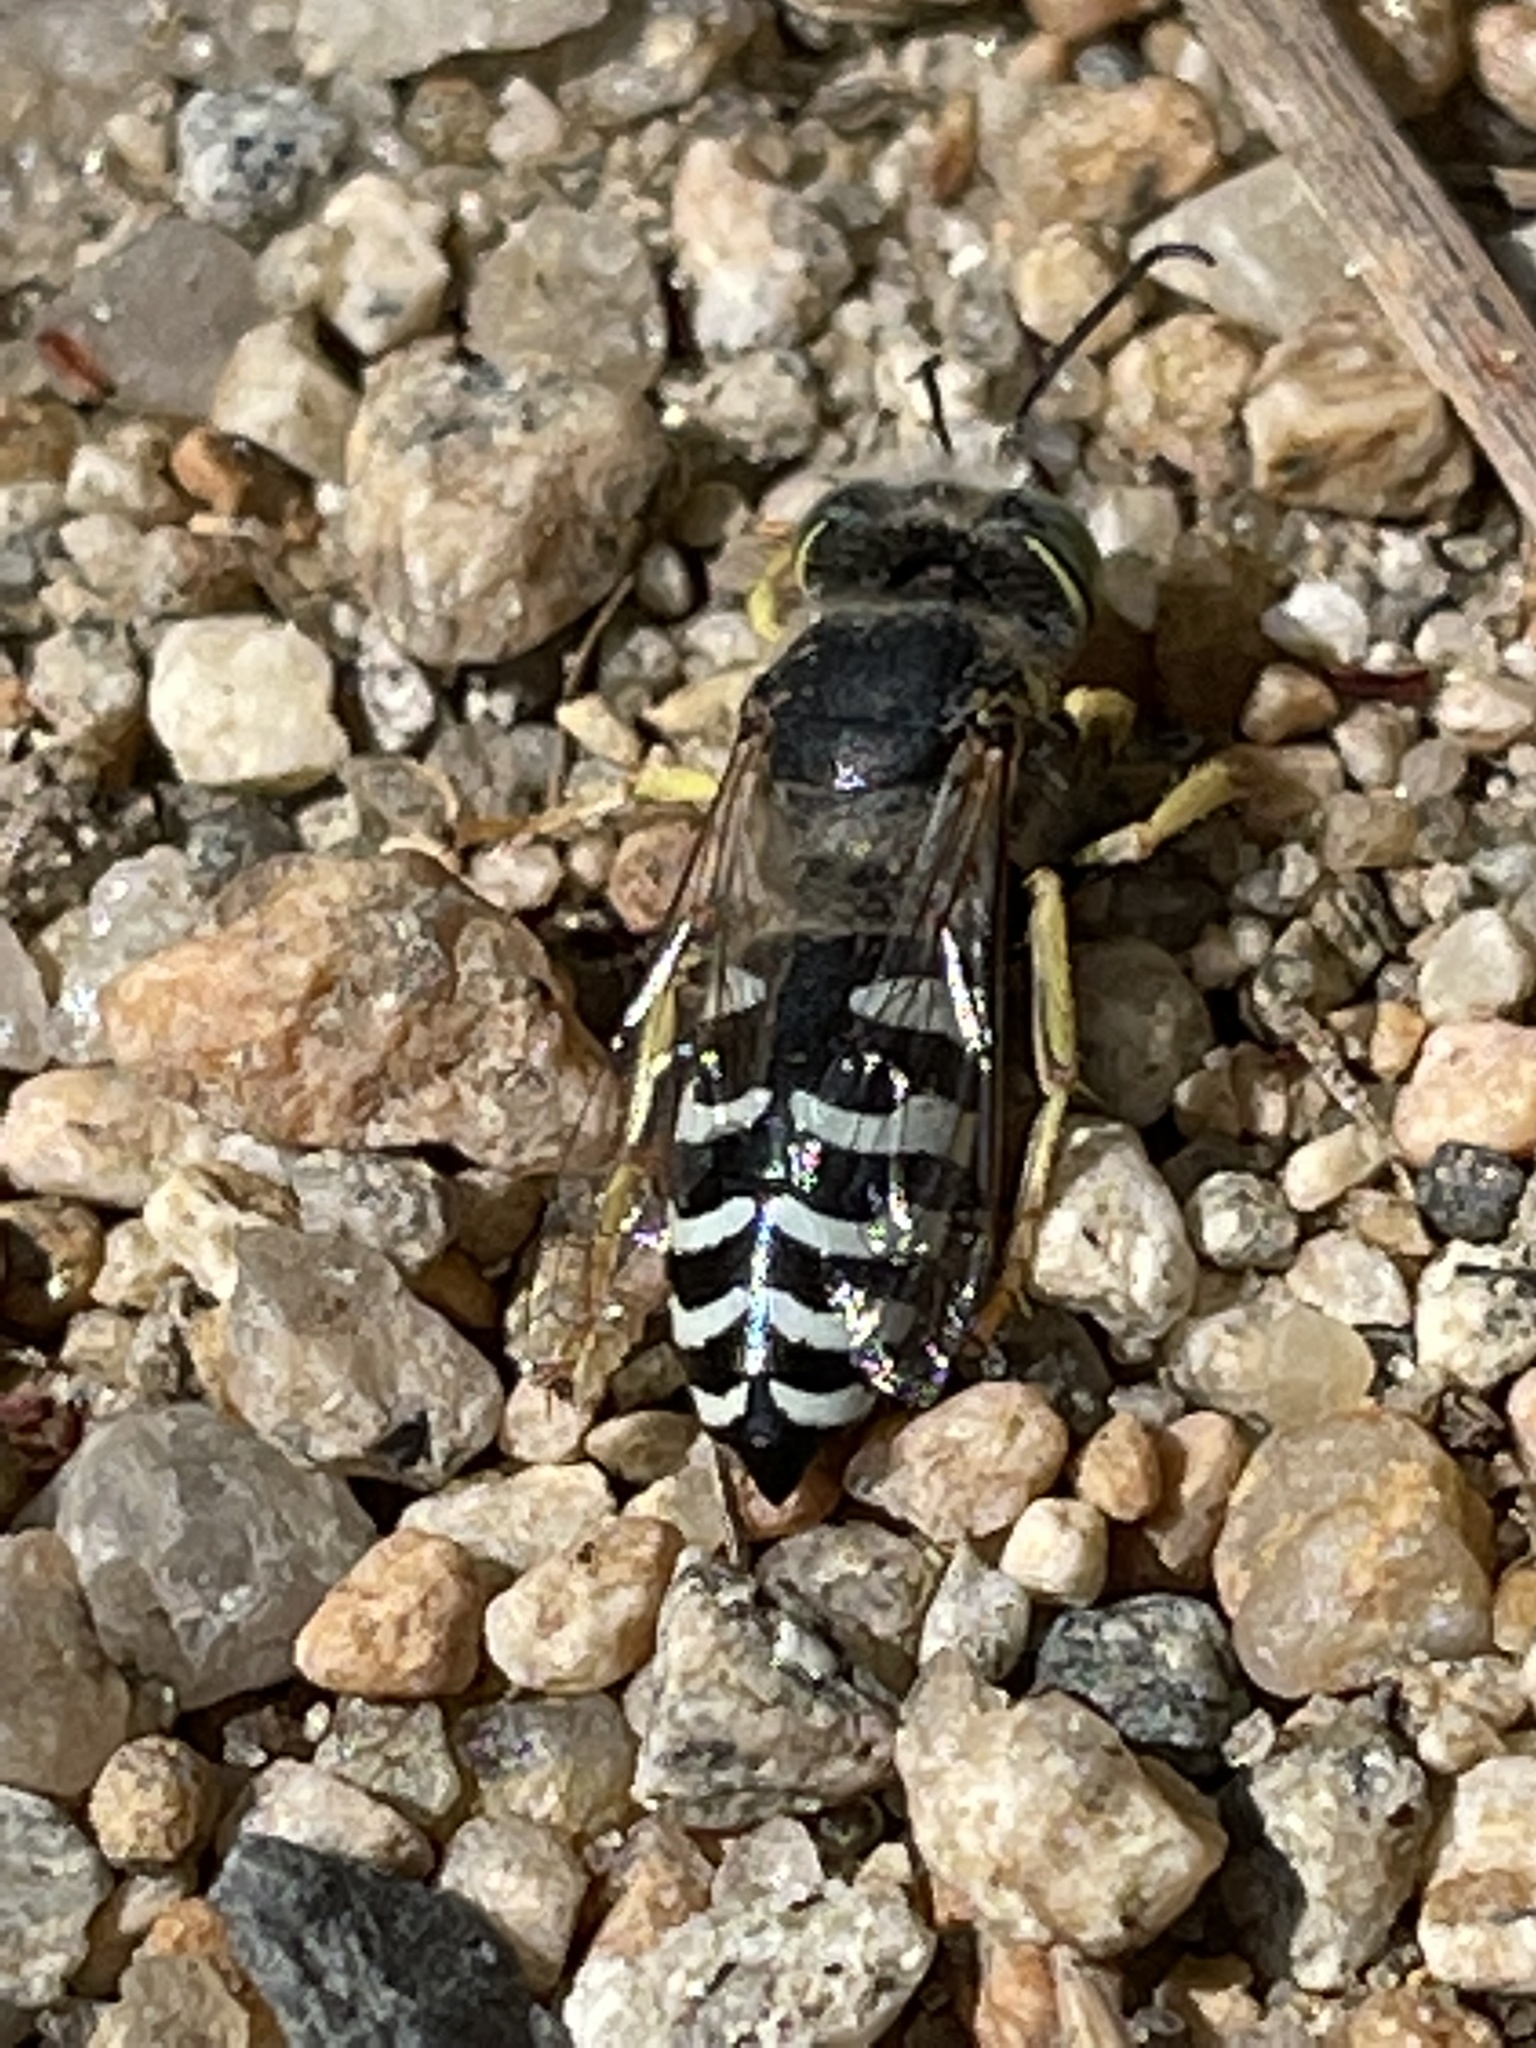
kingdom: Animalia
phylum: Arthropoda
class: Insecta
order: Hymenoptera
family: Crabronidae
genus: Bembix
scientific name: Bembix americana
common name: American sand wasp
